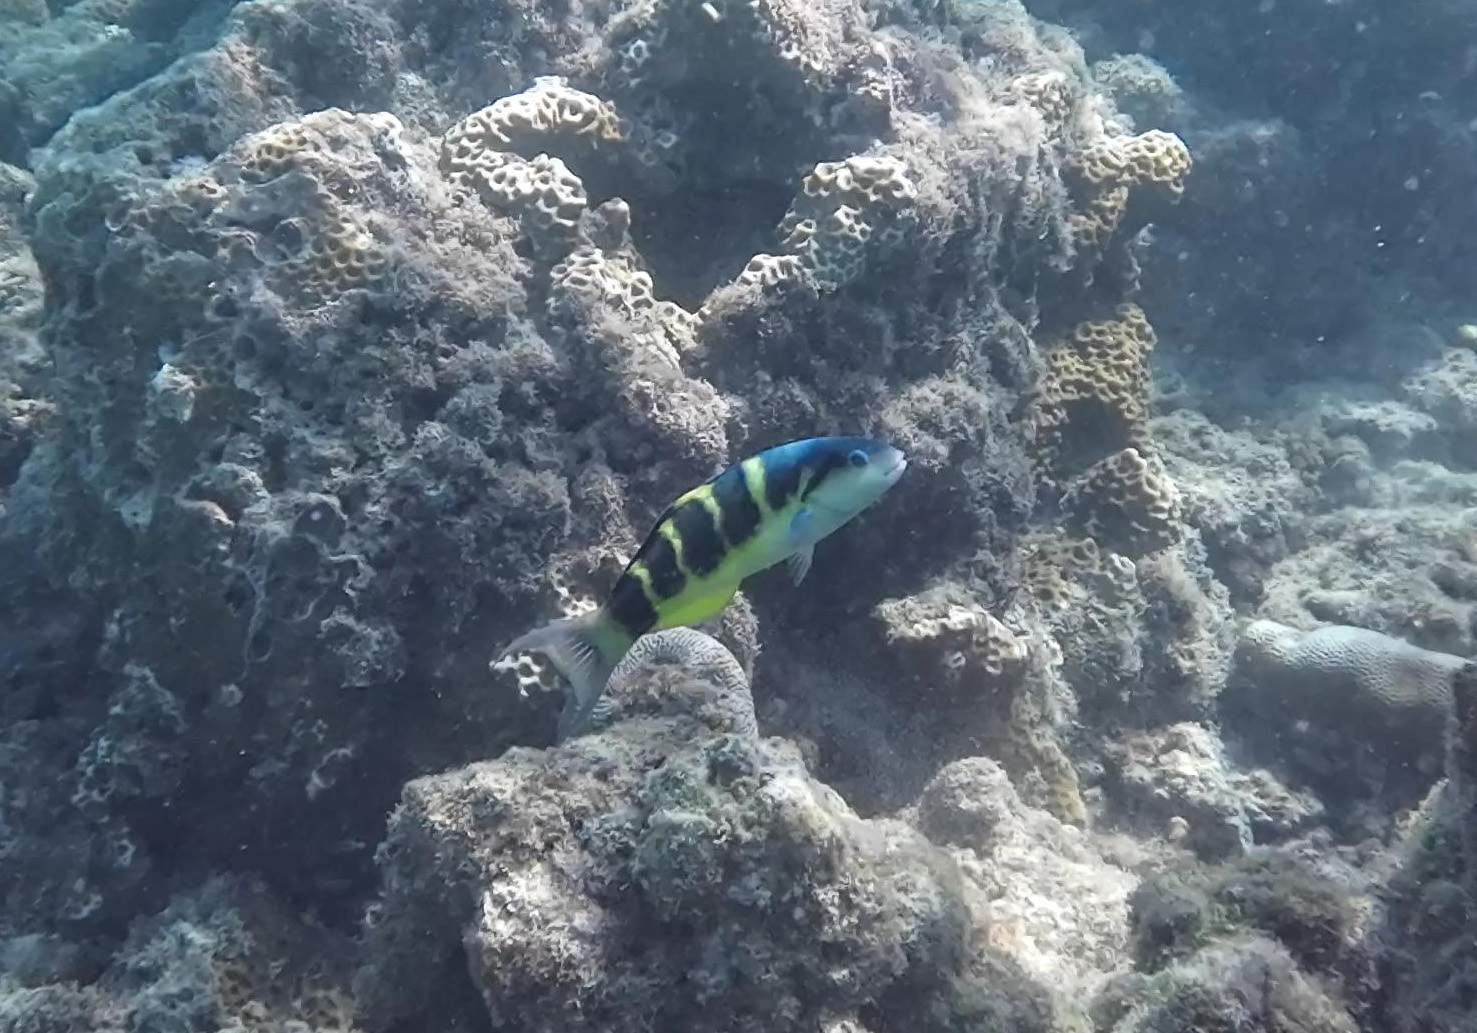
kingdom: Animalia
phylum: Chordata
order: Perciformes
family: Labridae
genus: Thalassoma
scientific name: Thalassoma jansenii
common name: Jansen's wrasse
